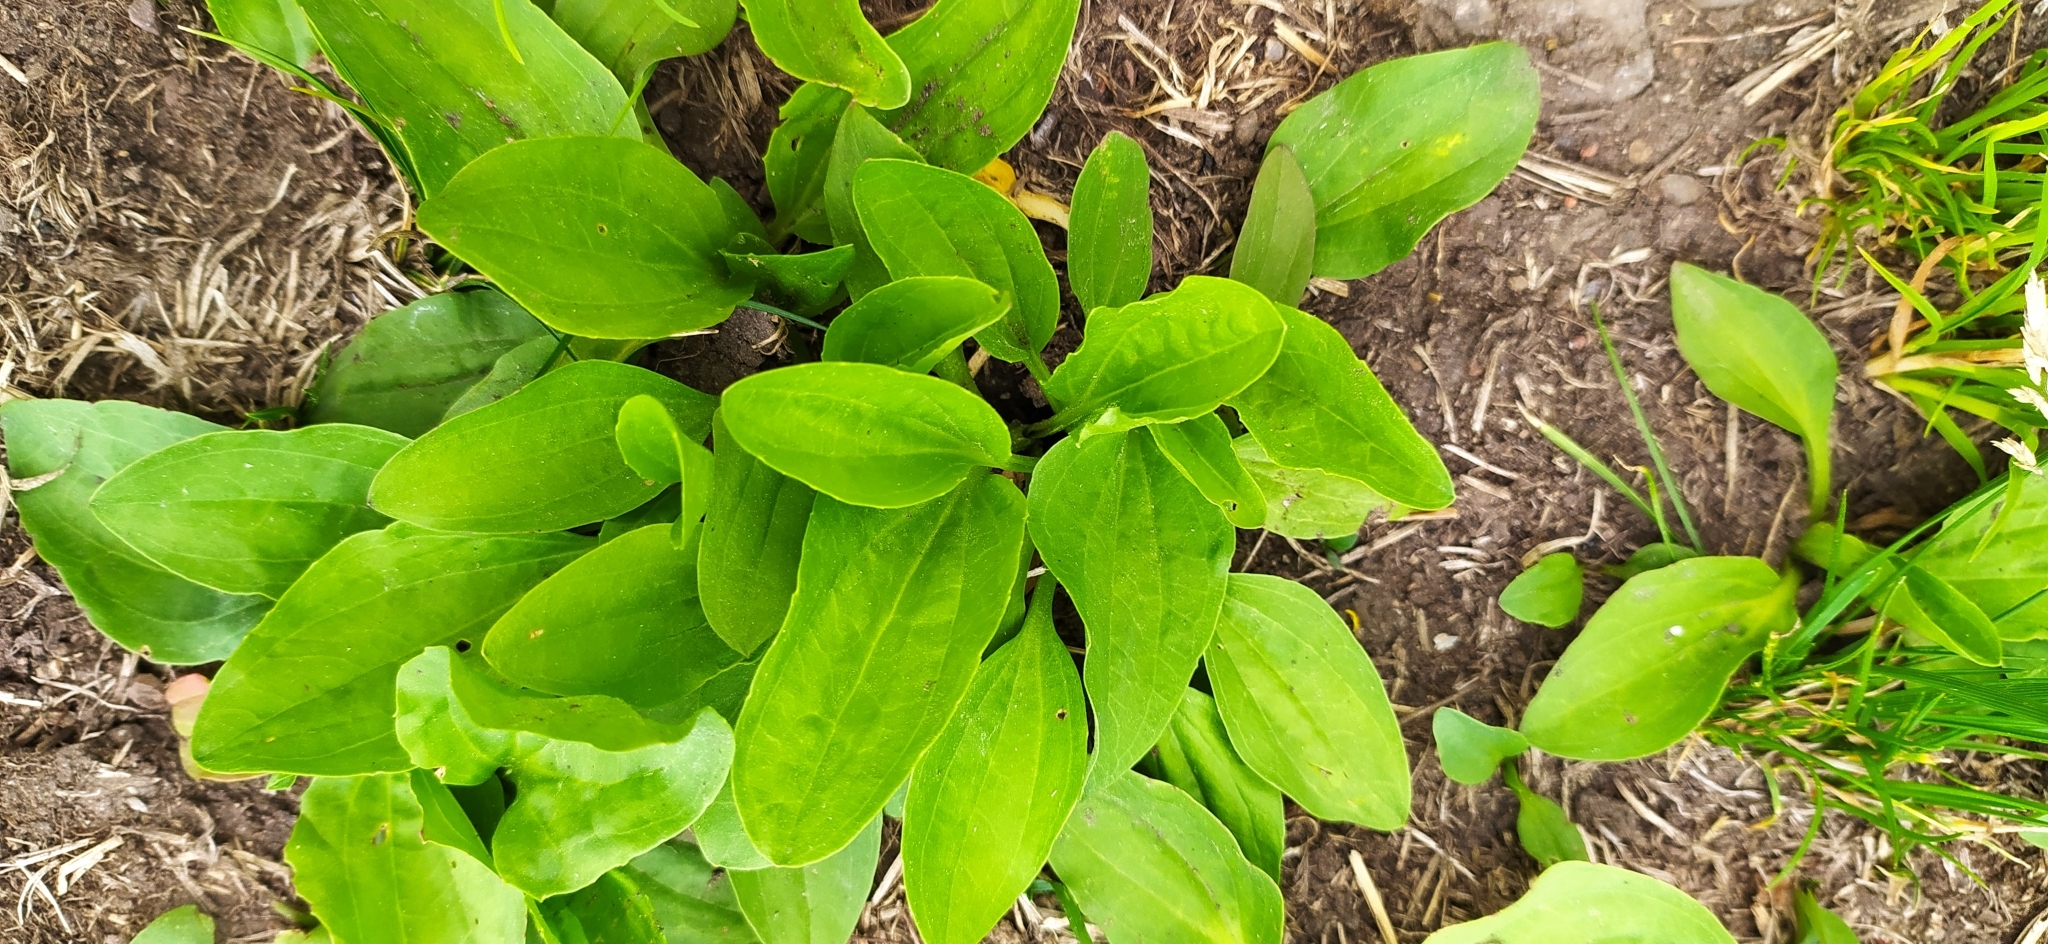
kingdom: Plantae
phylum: Tracheophyta
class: Magnoliopsida
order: Lamiales
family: Plantaginaceae
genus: Plantago
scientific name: Plantago major
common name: Common plantain
